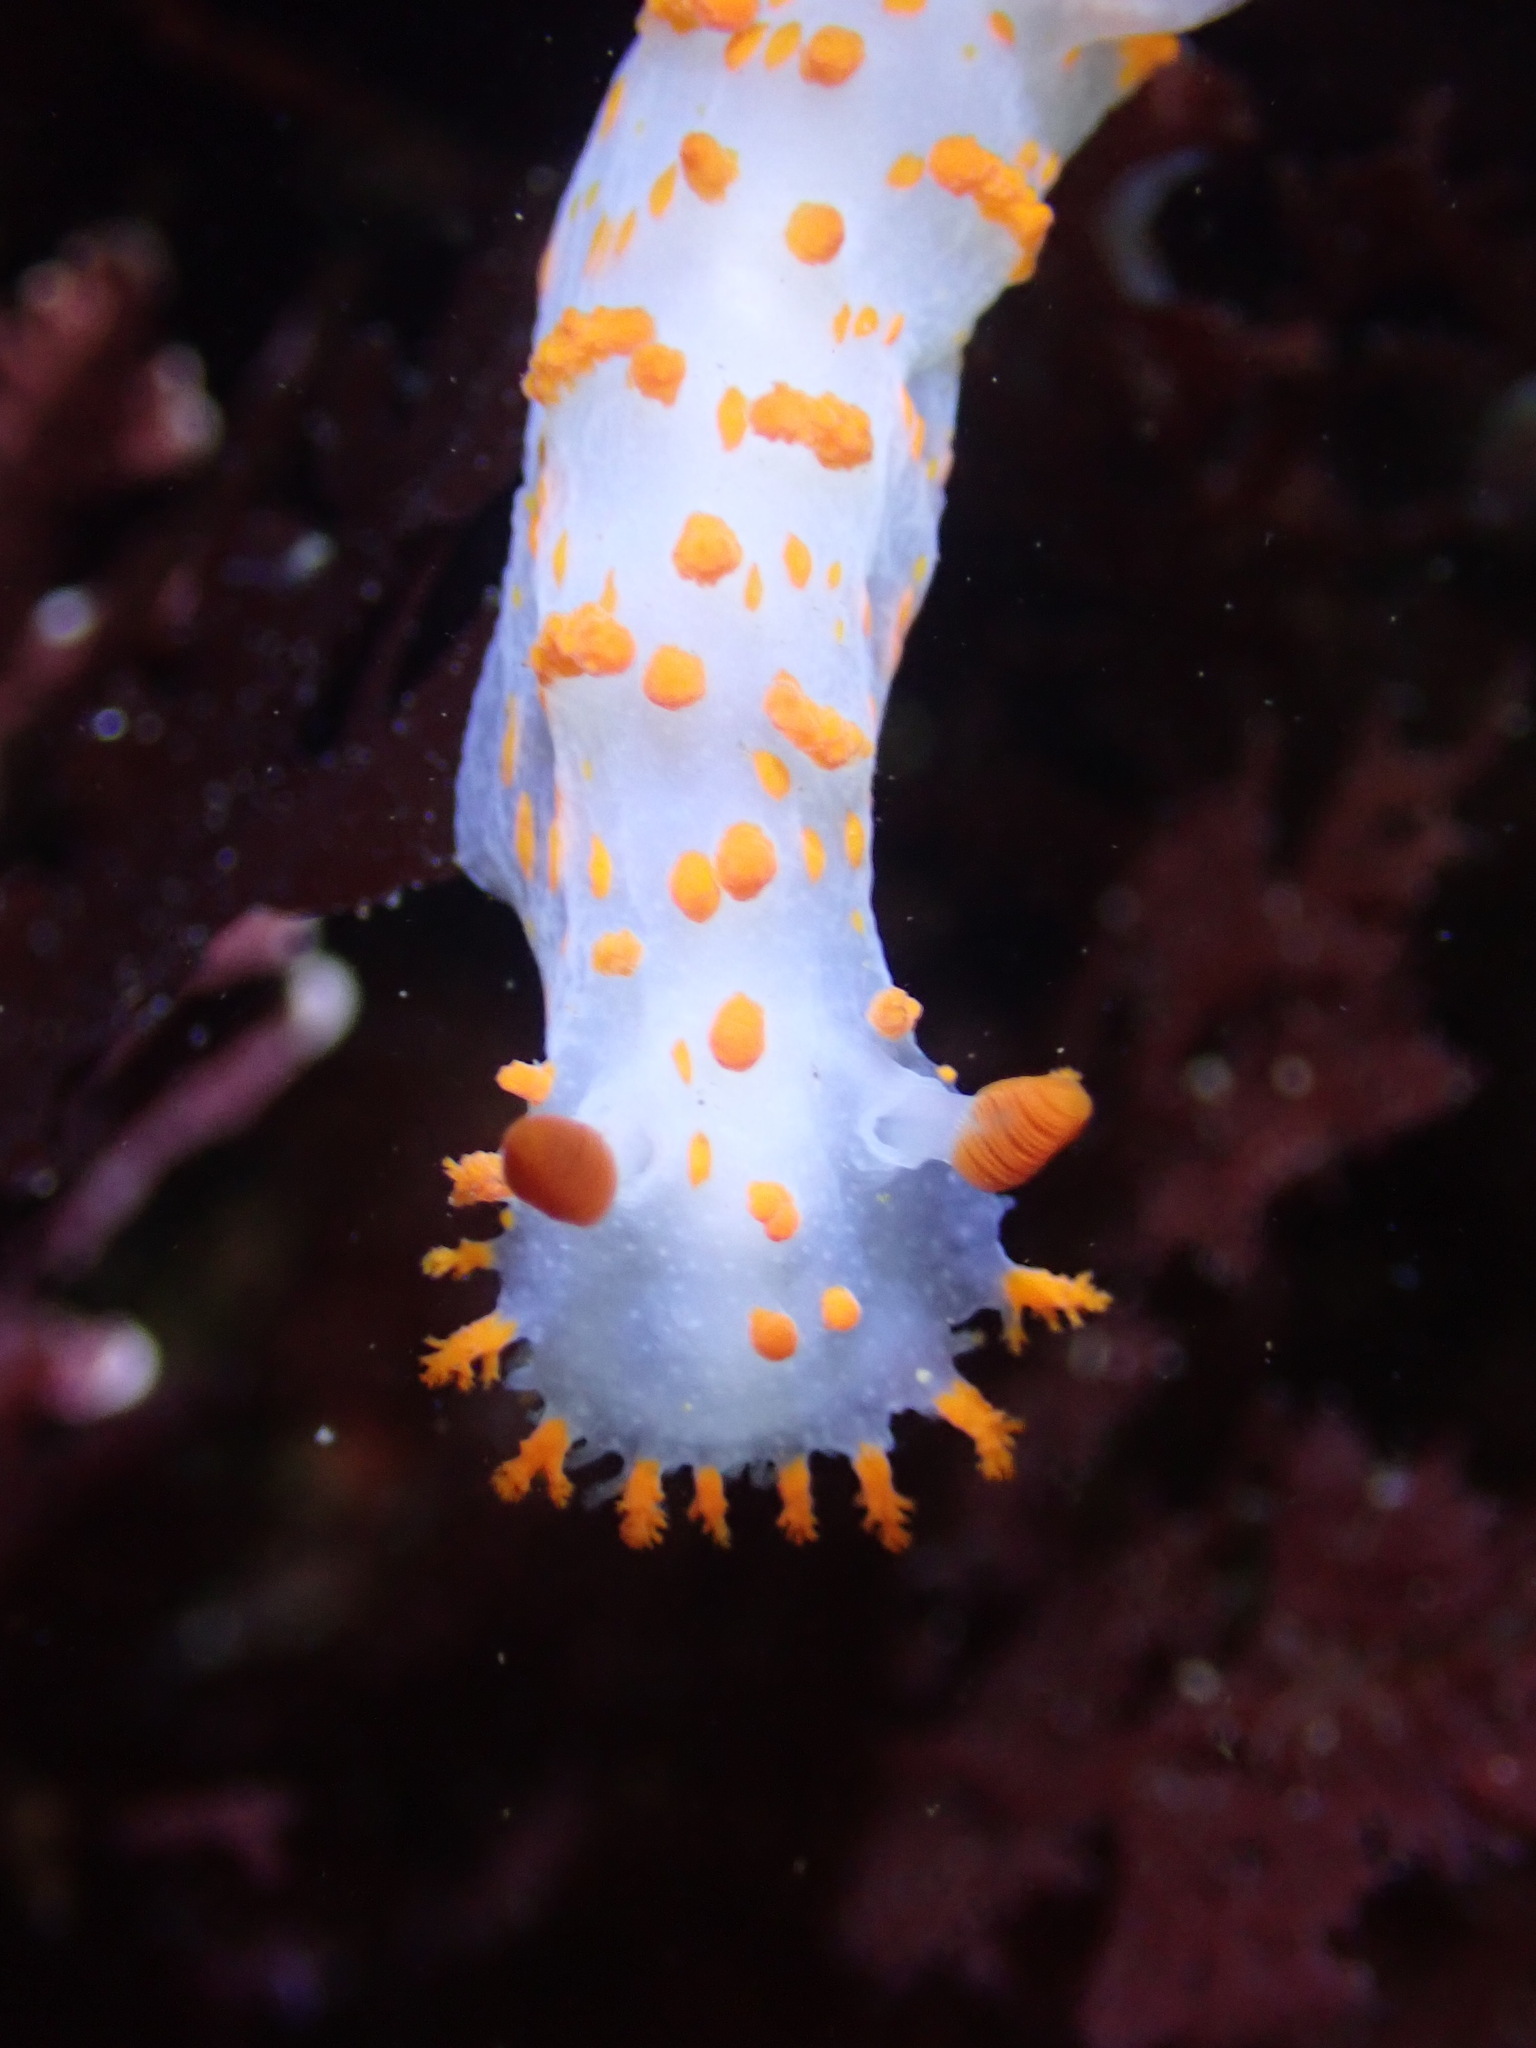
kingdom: Animalia
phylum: Mollusca
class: Gastropoda
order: Nudibranchia
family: Polyceridae
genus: Triopha
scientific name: Triopha catalinae
